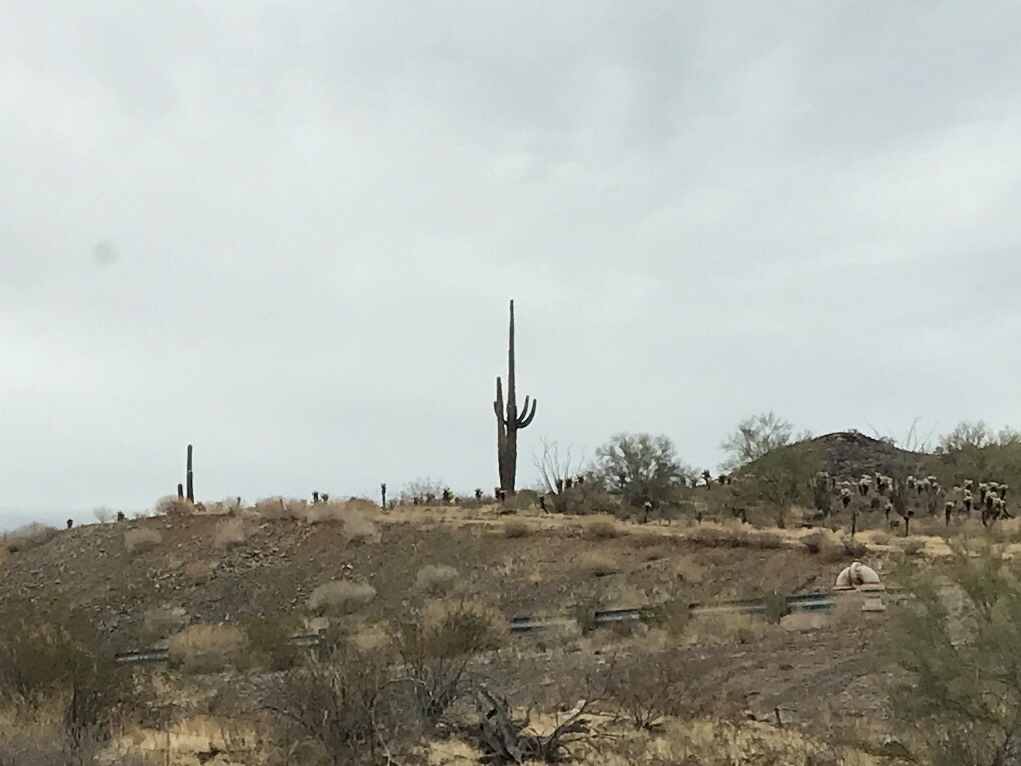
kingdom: Plantae
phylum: Tracheophyta
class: Magnoliopsida
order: Caryophyllales
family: Cactaceae
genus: Carnegiea
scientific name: Carnegiea gigantea
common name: Saguaro
